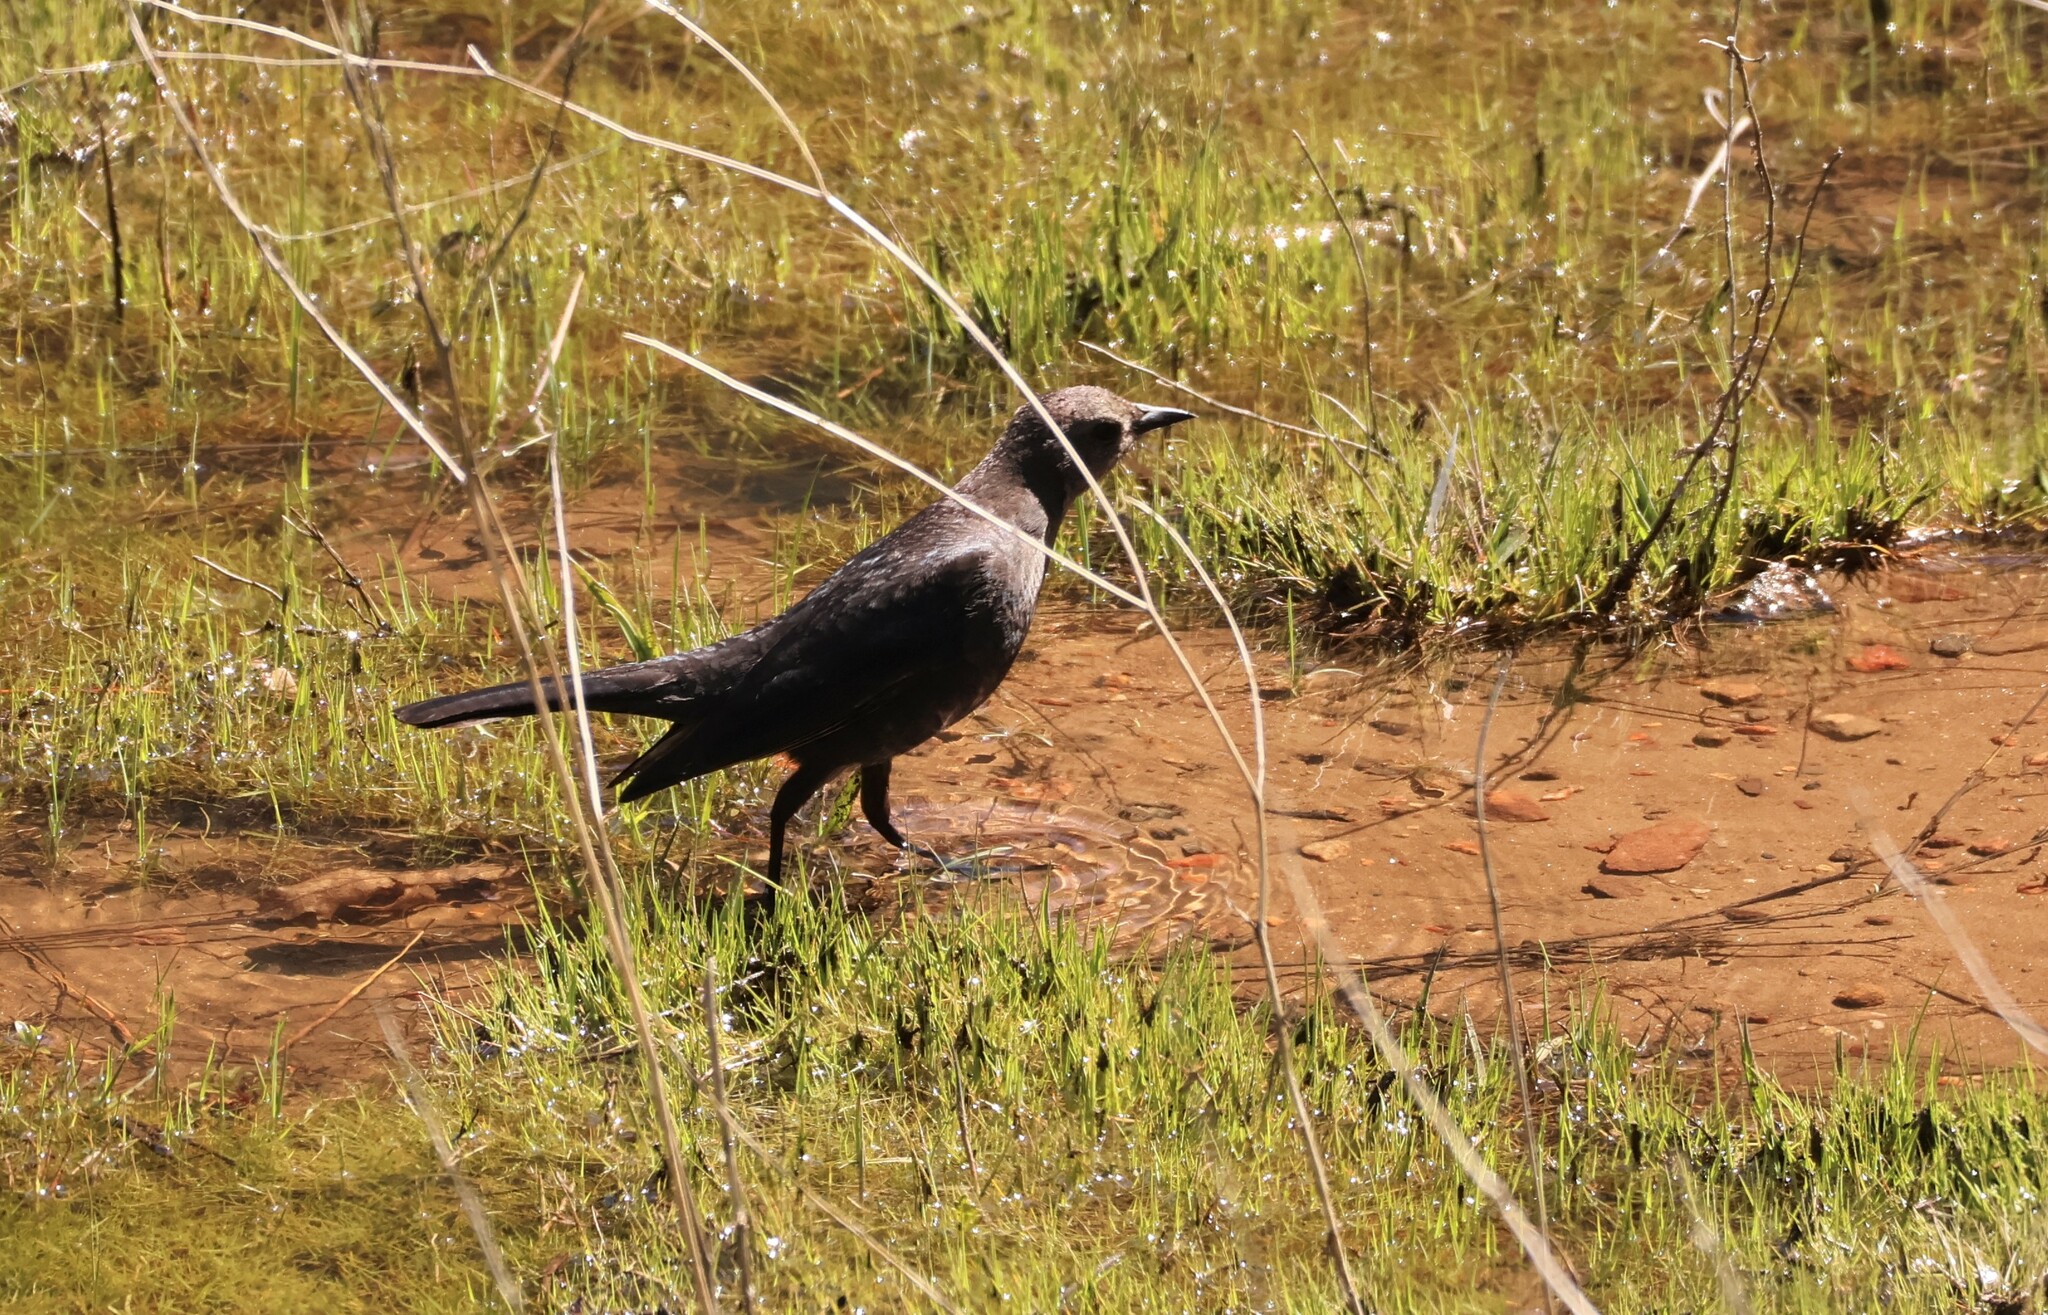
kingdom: Animalia
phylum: Chordata
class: Aves
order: Passeriformes
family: Icteridae
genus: Euphagus
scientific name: Euphagus cyanocephalus
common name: Brewer's blackbird
